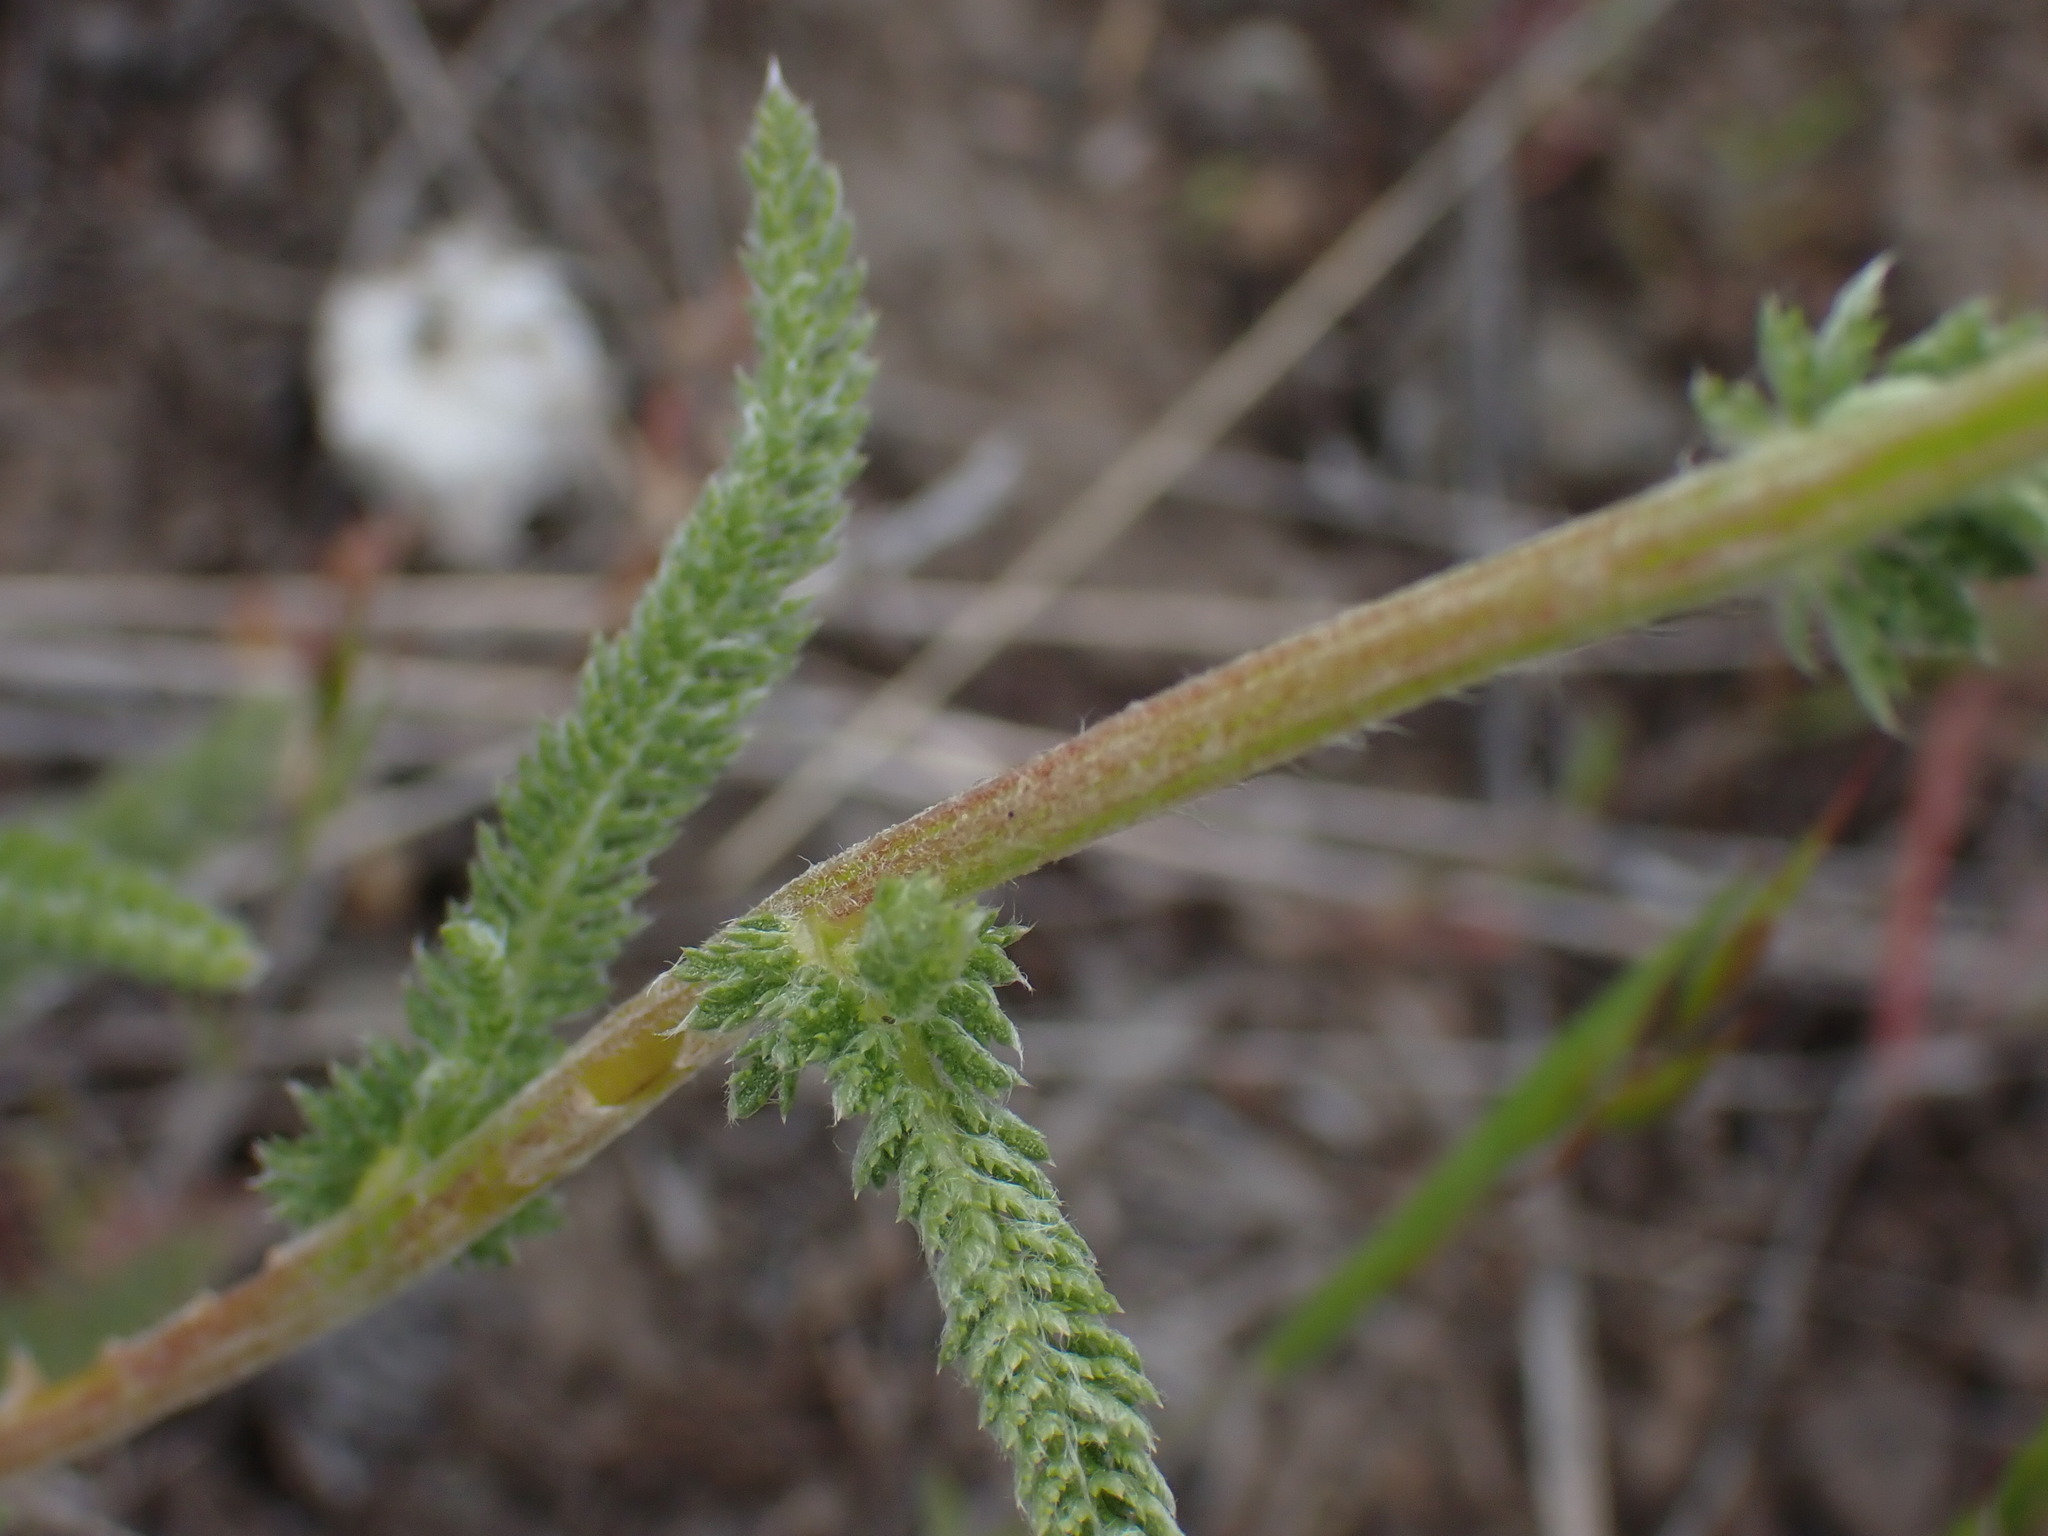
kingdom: Plantae
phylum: Tracheophyta
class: Magnoliopsida
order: Asterales
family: Asteraceae
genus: Achillea
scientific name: Achillea millefolium
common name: Yarrow
